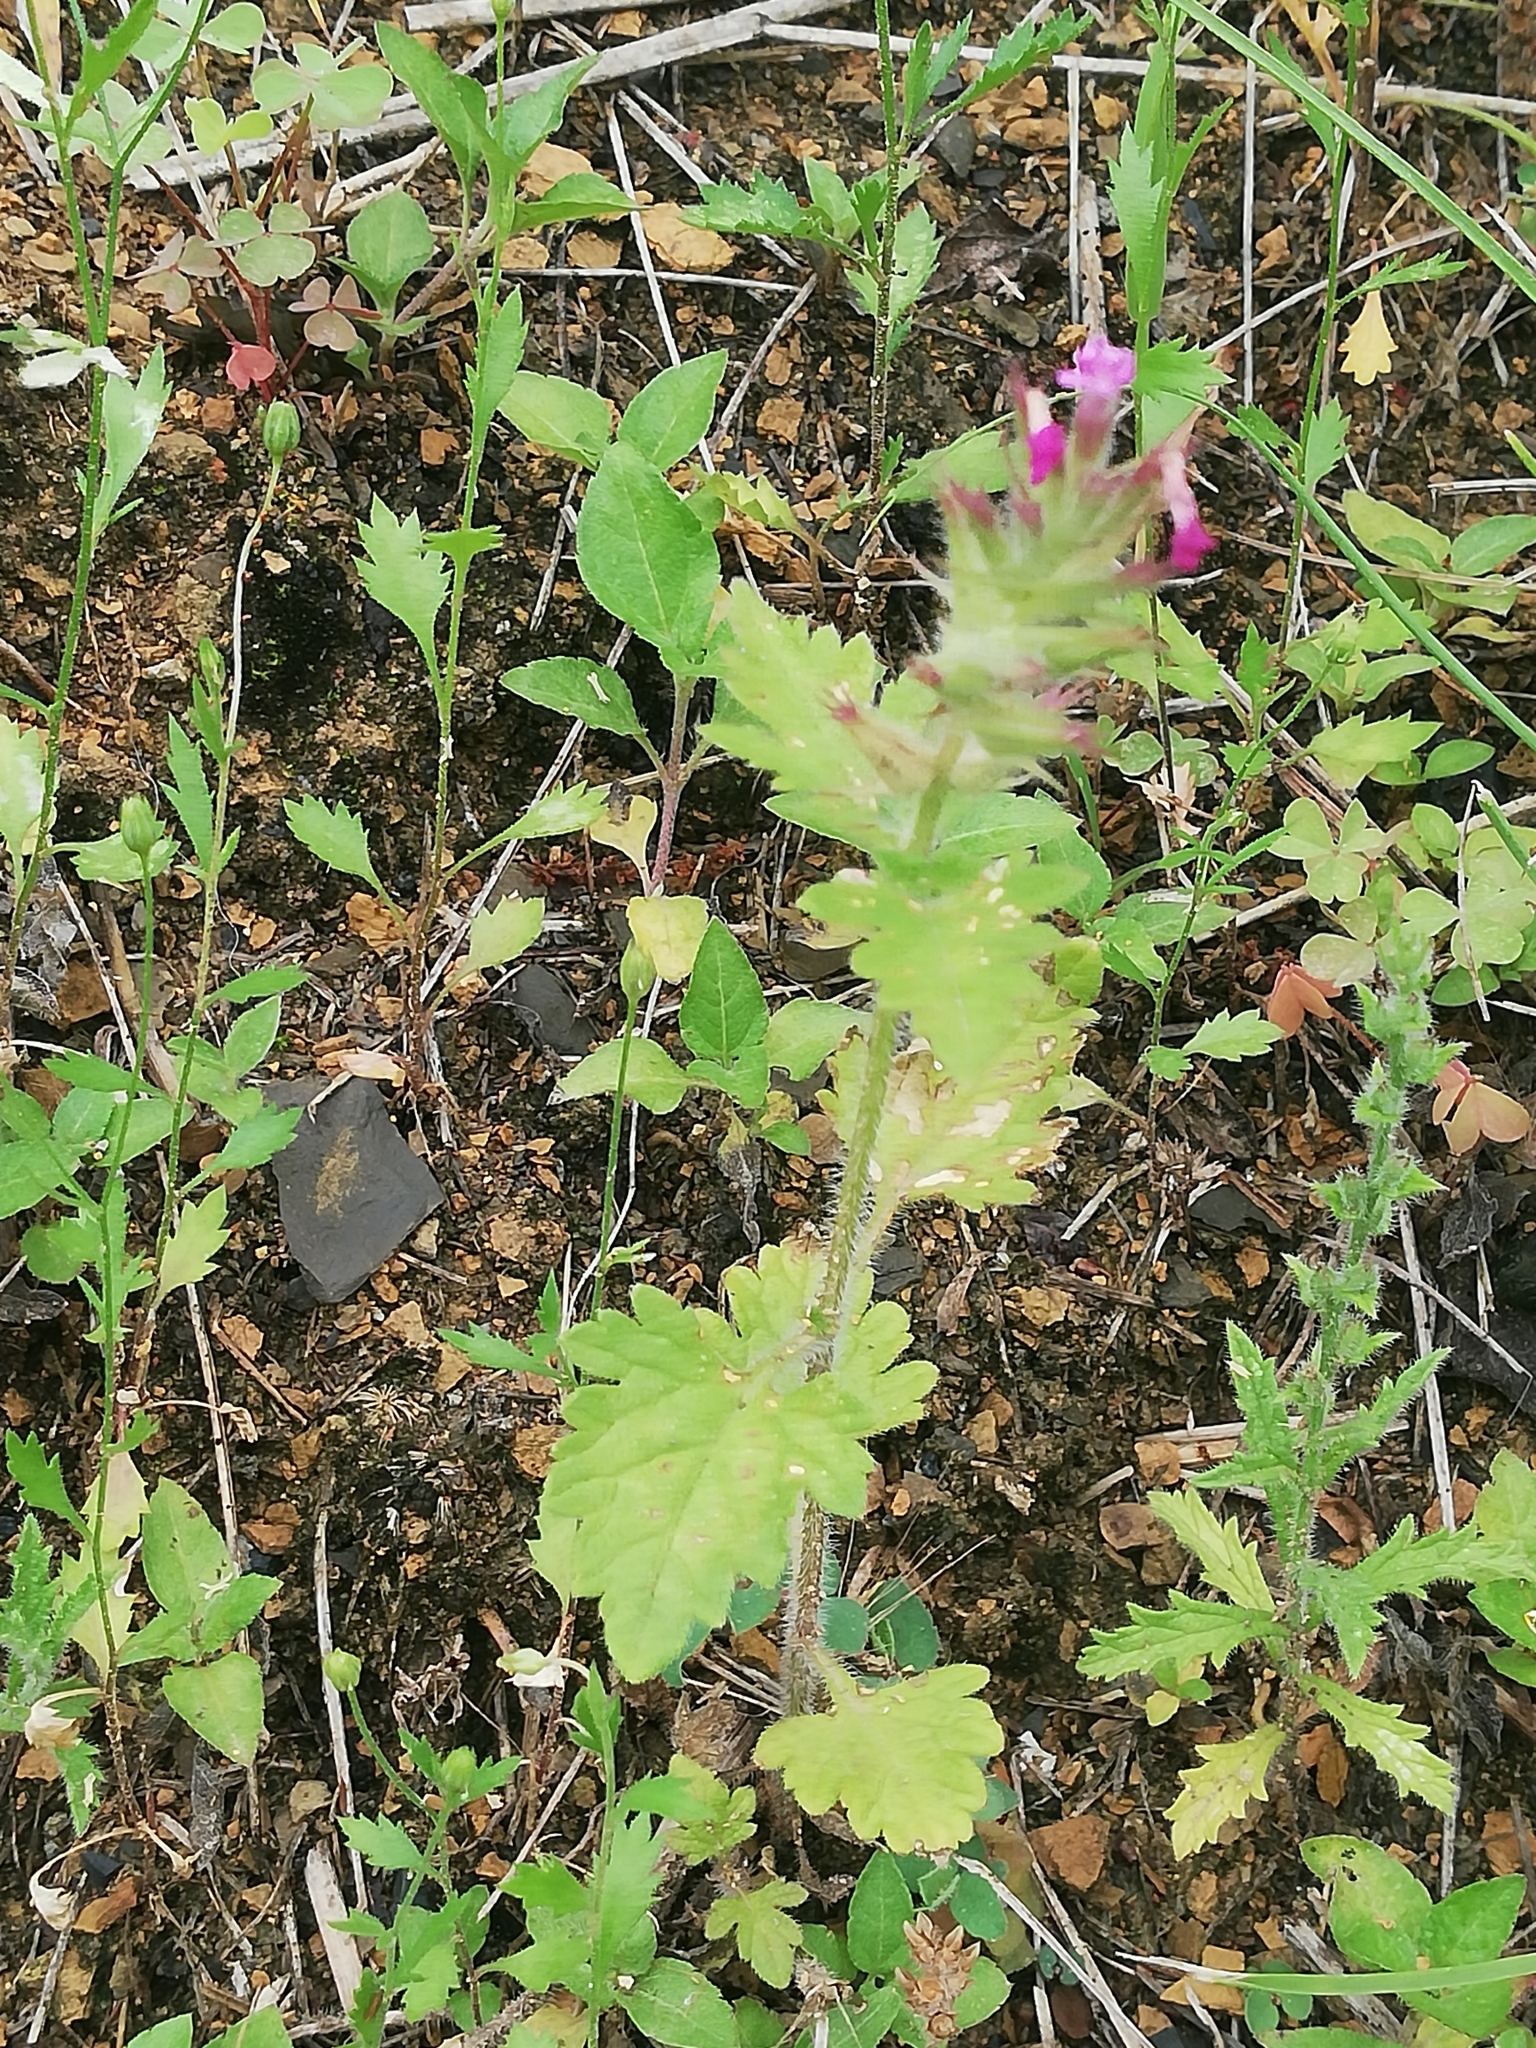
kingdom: Plantae
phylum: Tracheophyta
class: Magnoliopsida
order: Lamiales
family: Verbenaceae
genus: Verbena
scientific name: Verbena canadensis
